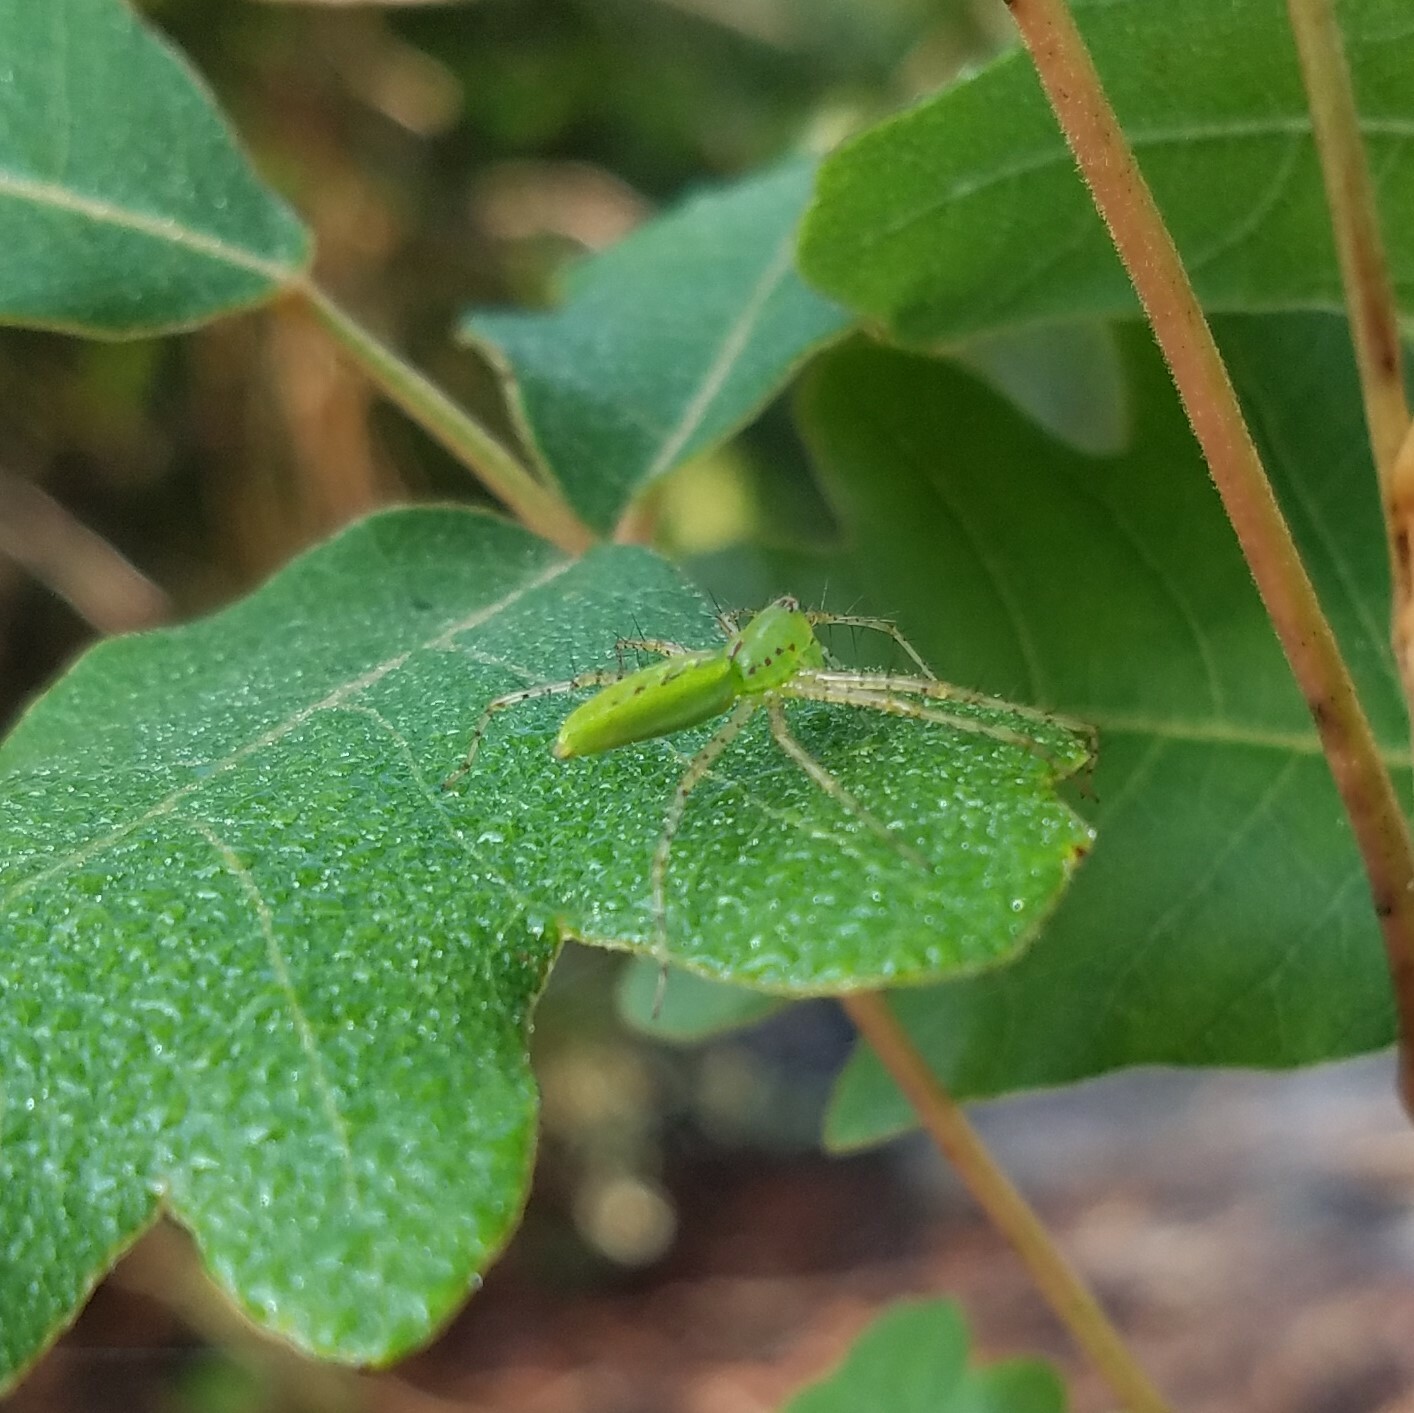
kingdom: Animalia
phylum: Arthropoda
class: Arachnida
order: Araneae
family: Oxyopidae
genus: Peucetia
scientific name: Peucetia viridans
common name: Lynx spiders
